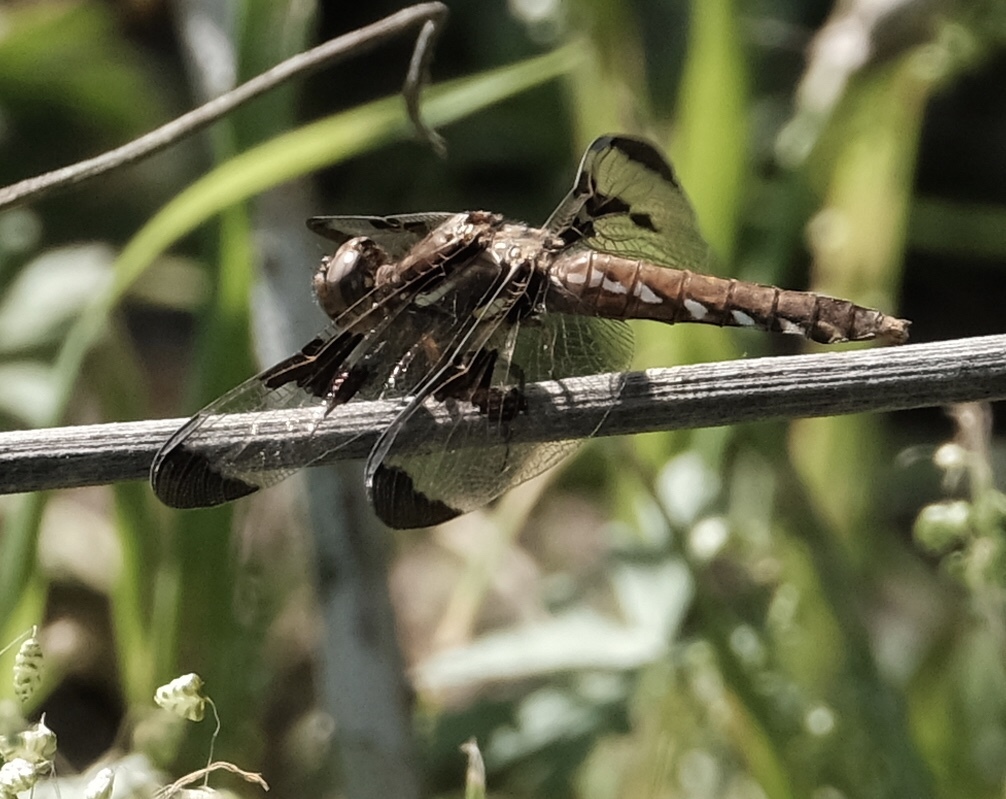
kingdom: Animalia
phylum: Arthropoda
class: Insecta
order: Odonata
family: Libellulidae
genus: Plathemis
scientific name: Plathemis lydia
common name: Common whitetail
